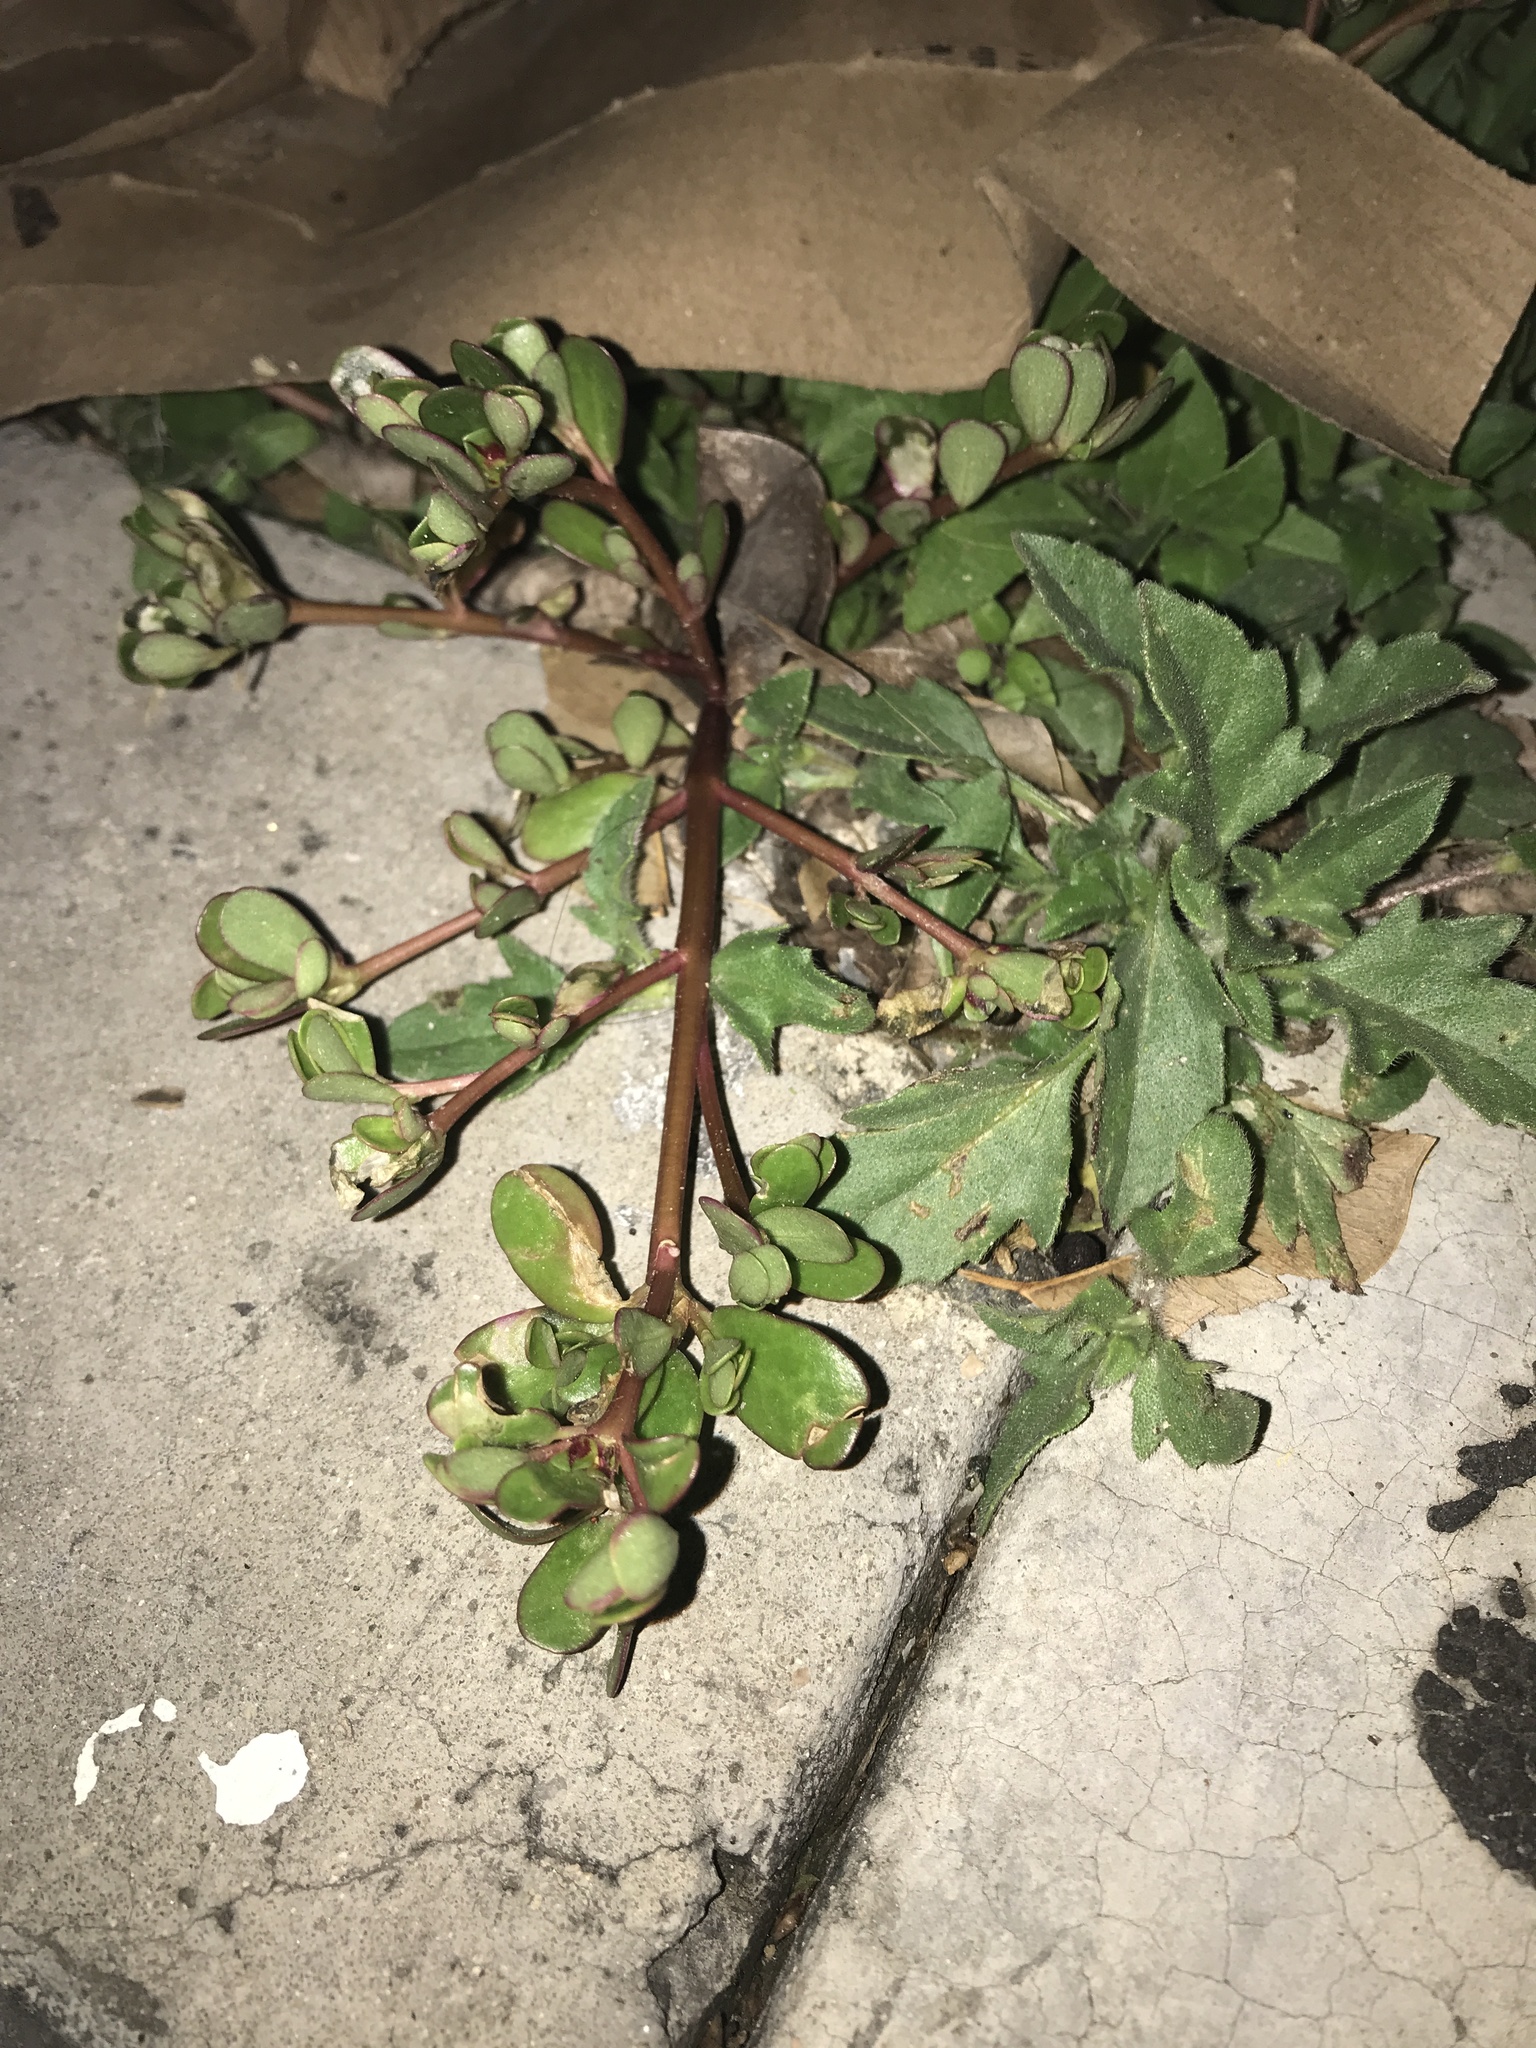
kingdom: Plantae
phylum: Tracheophyta
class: Magnoliopsida
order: Caryophyllales
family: Portulacaceae
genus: Portulaca
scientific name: Portulaca oleracea
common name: Common purslane
